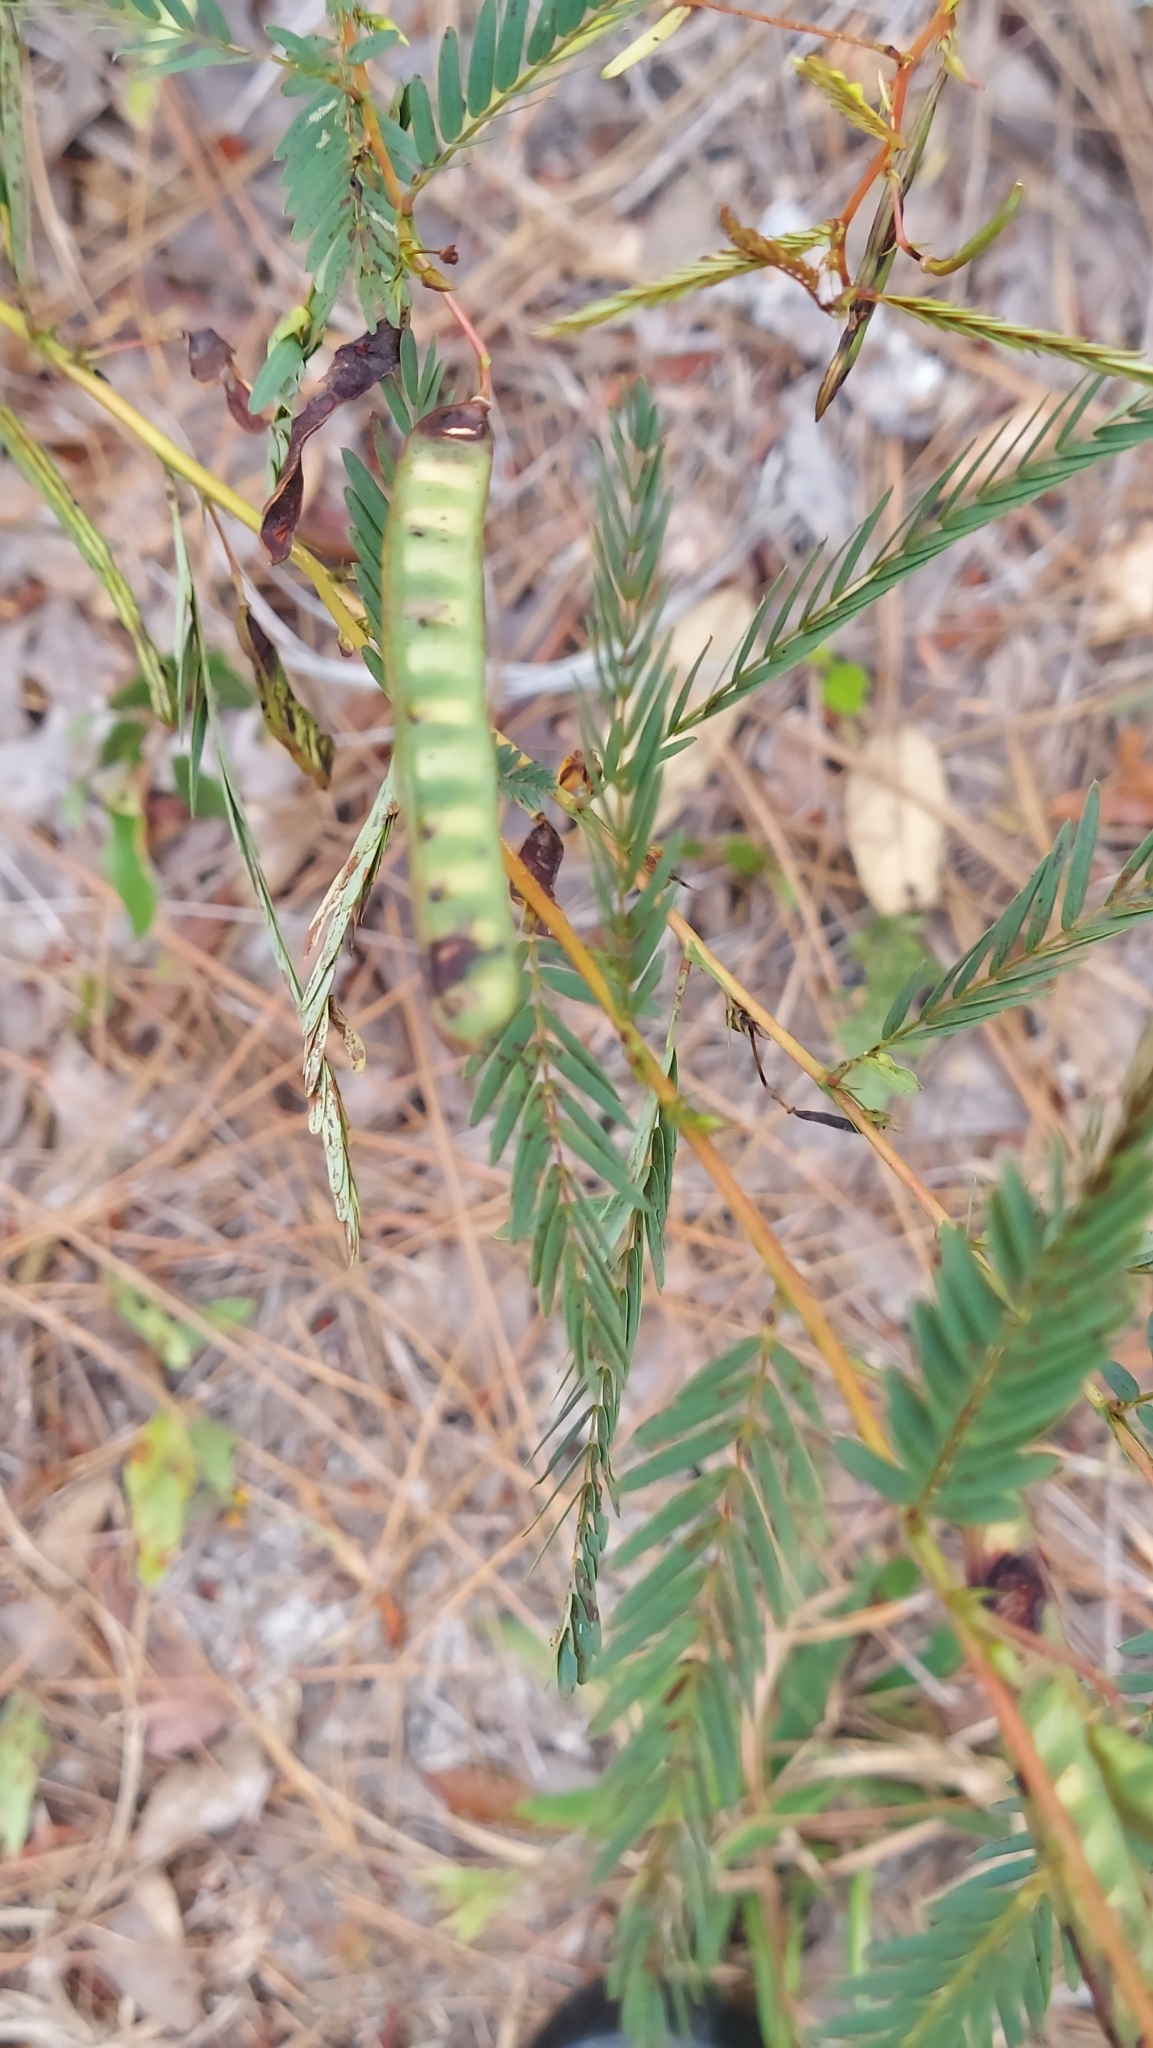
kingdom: Plantae
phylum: Tracheophyta
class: Magnoliopsida
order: Fabales
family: Fabaceae
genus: Chamaecrista
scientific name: Chamaecrista fasciculata
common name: Golden cassia
